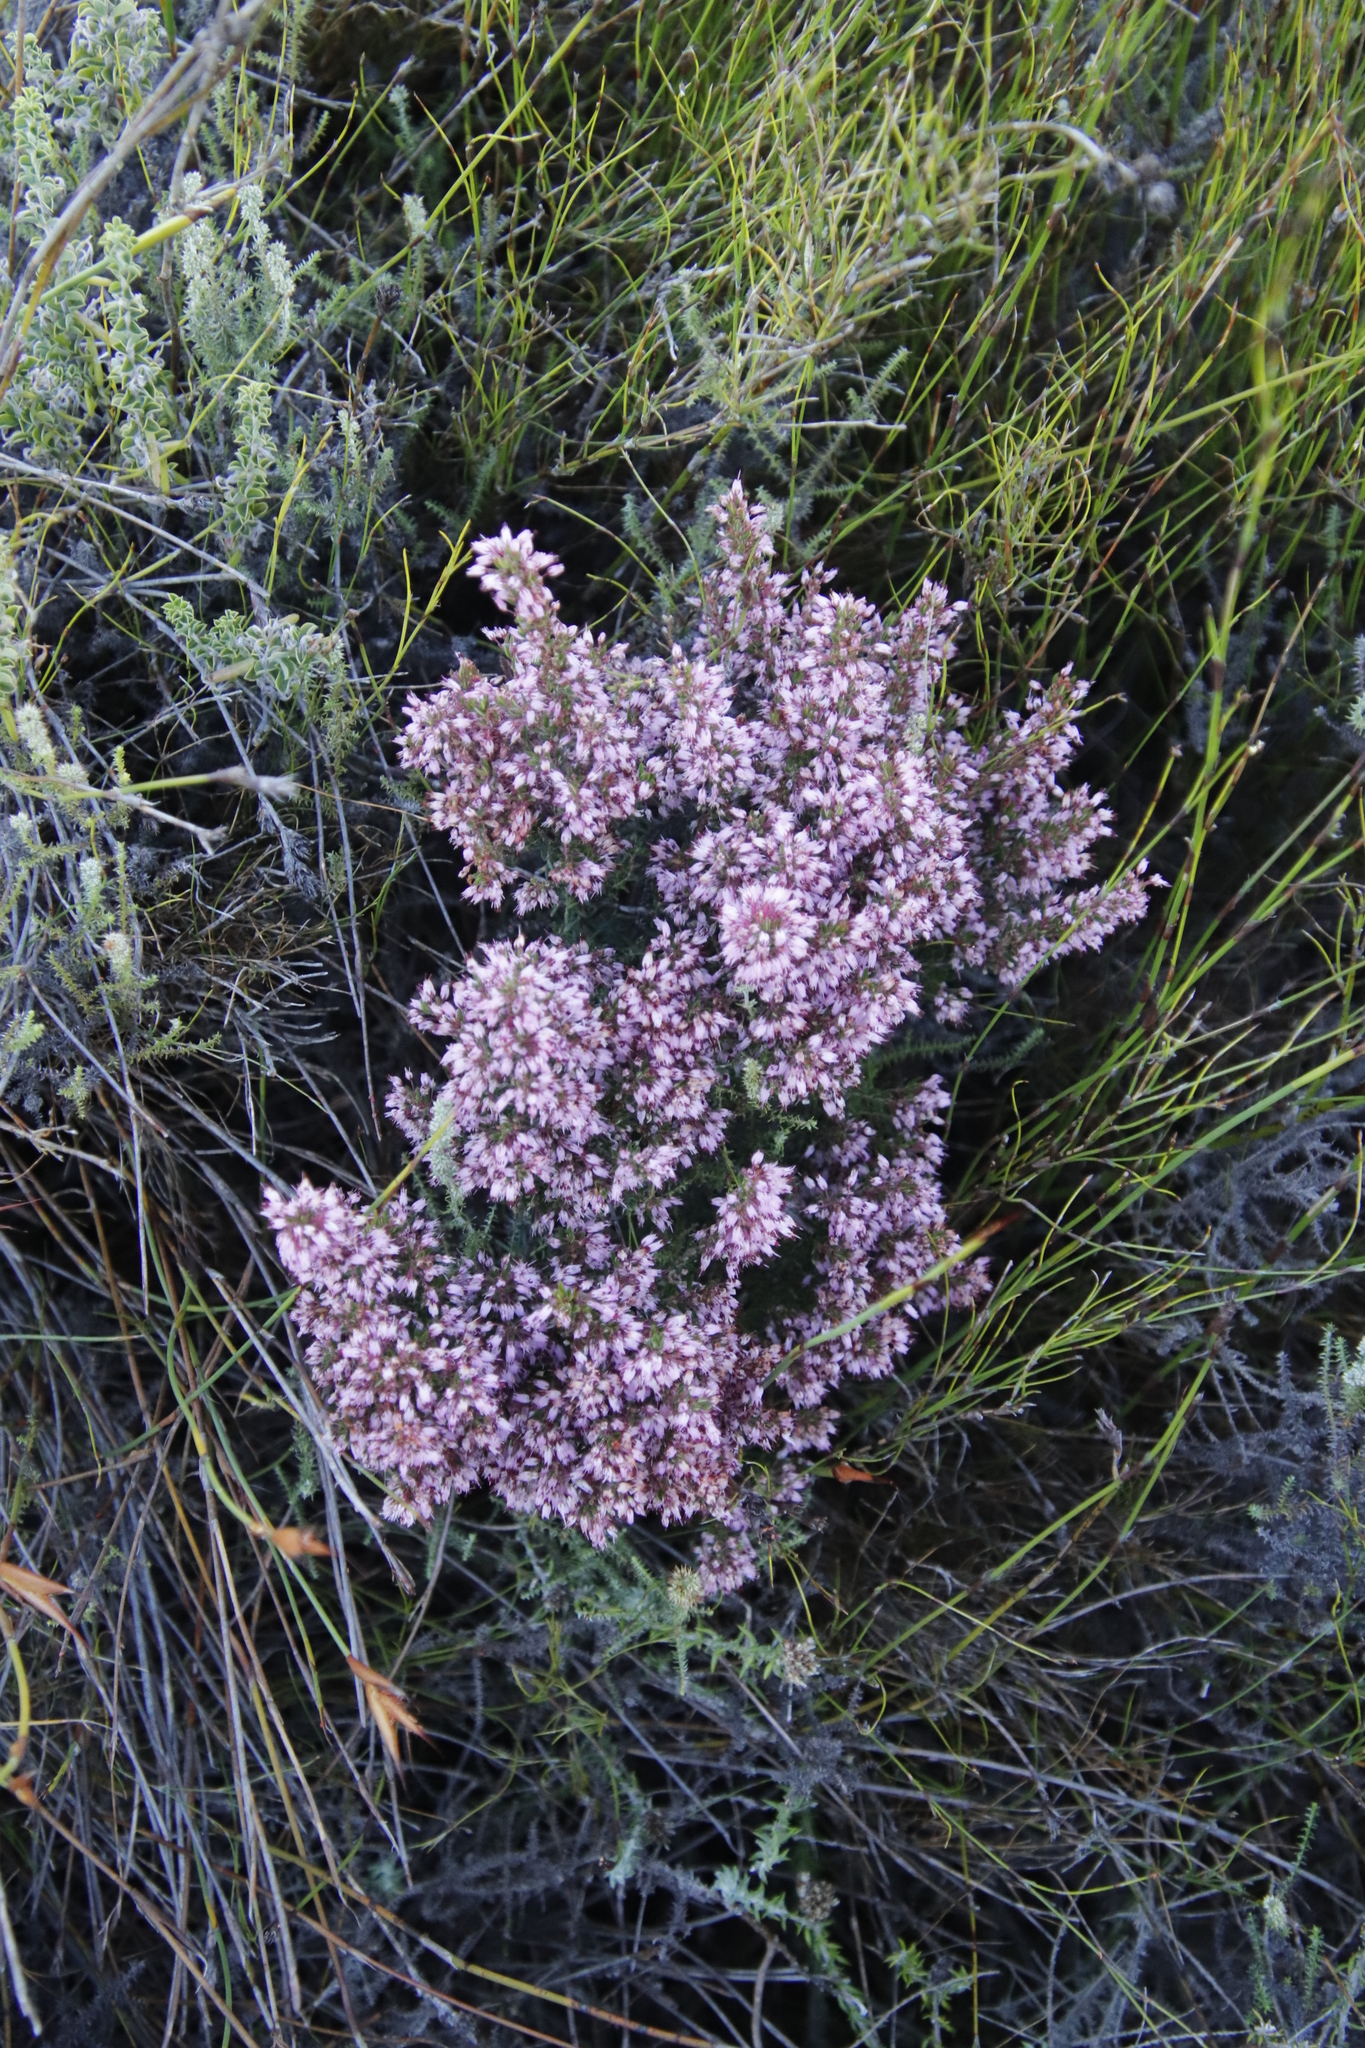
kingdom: Plantae
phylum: Tracheophyta
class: Magnoliopsida
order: Ericales
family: Ericaceae
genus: Erica
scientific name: Erica nudiflora
